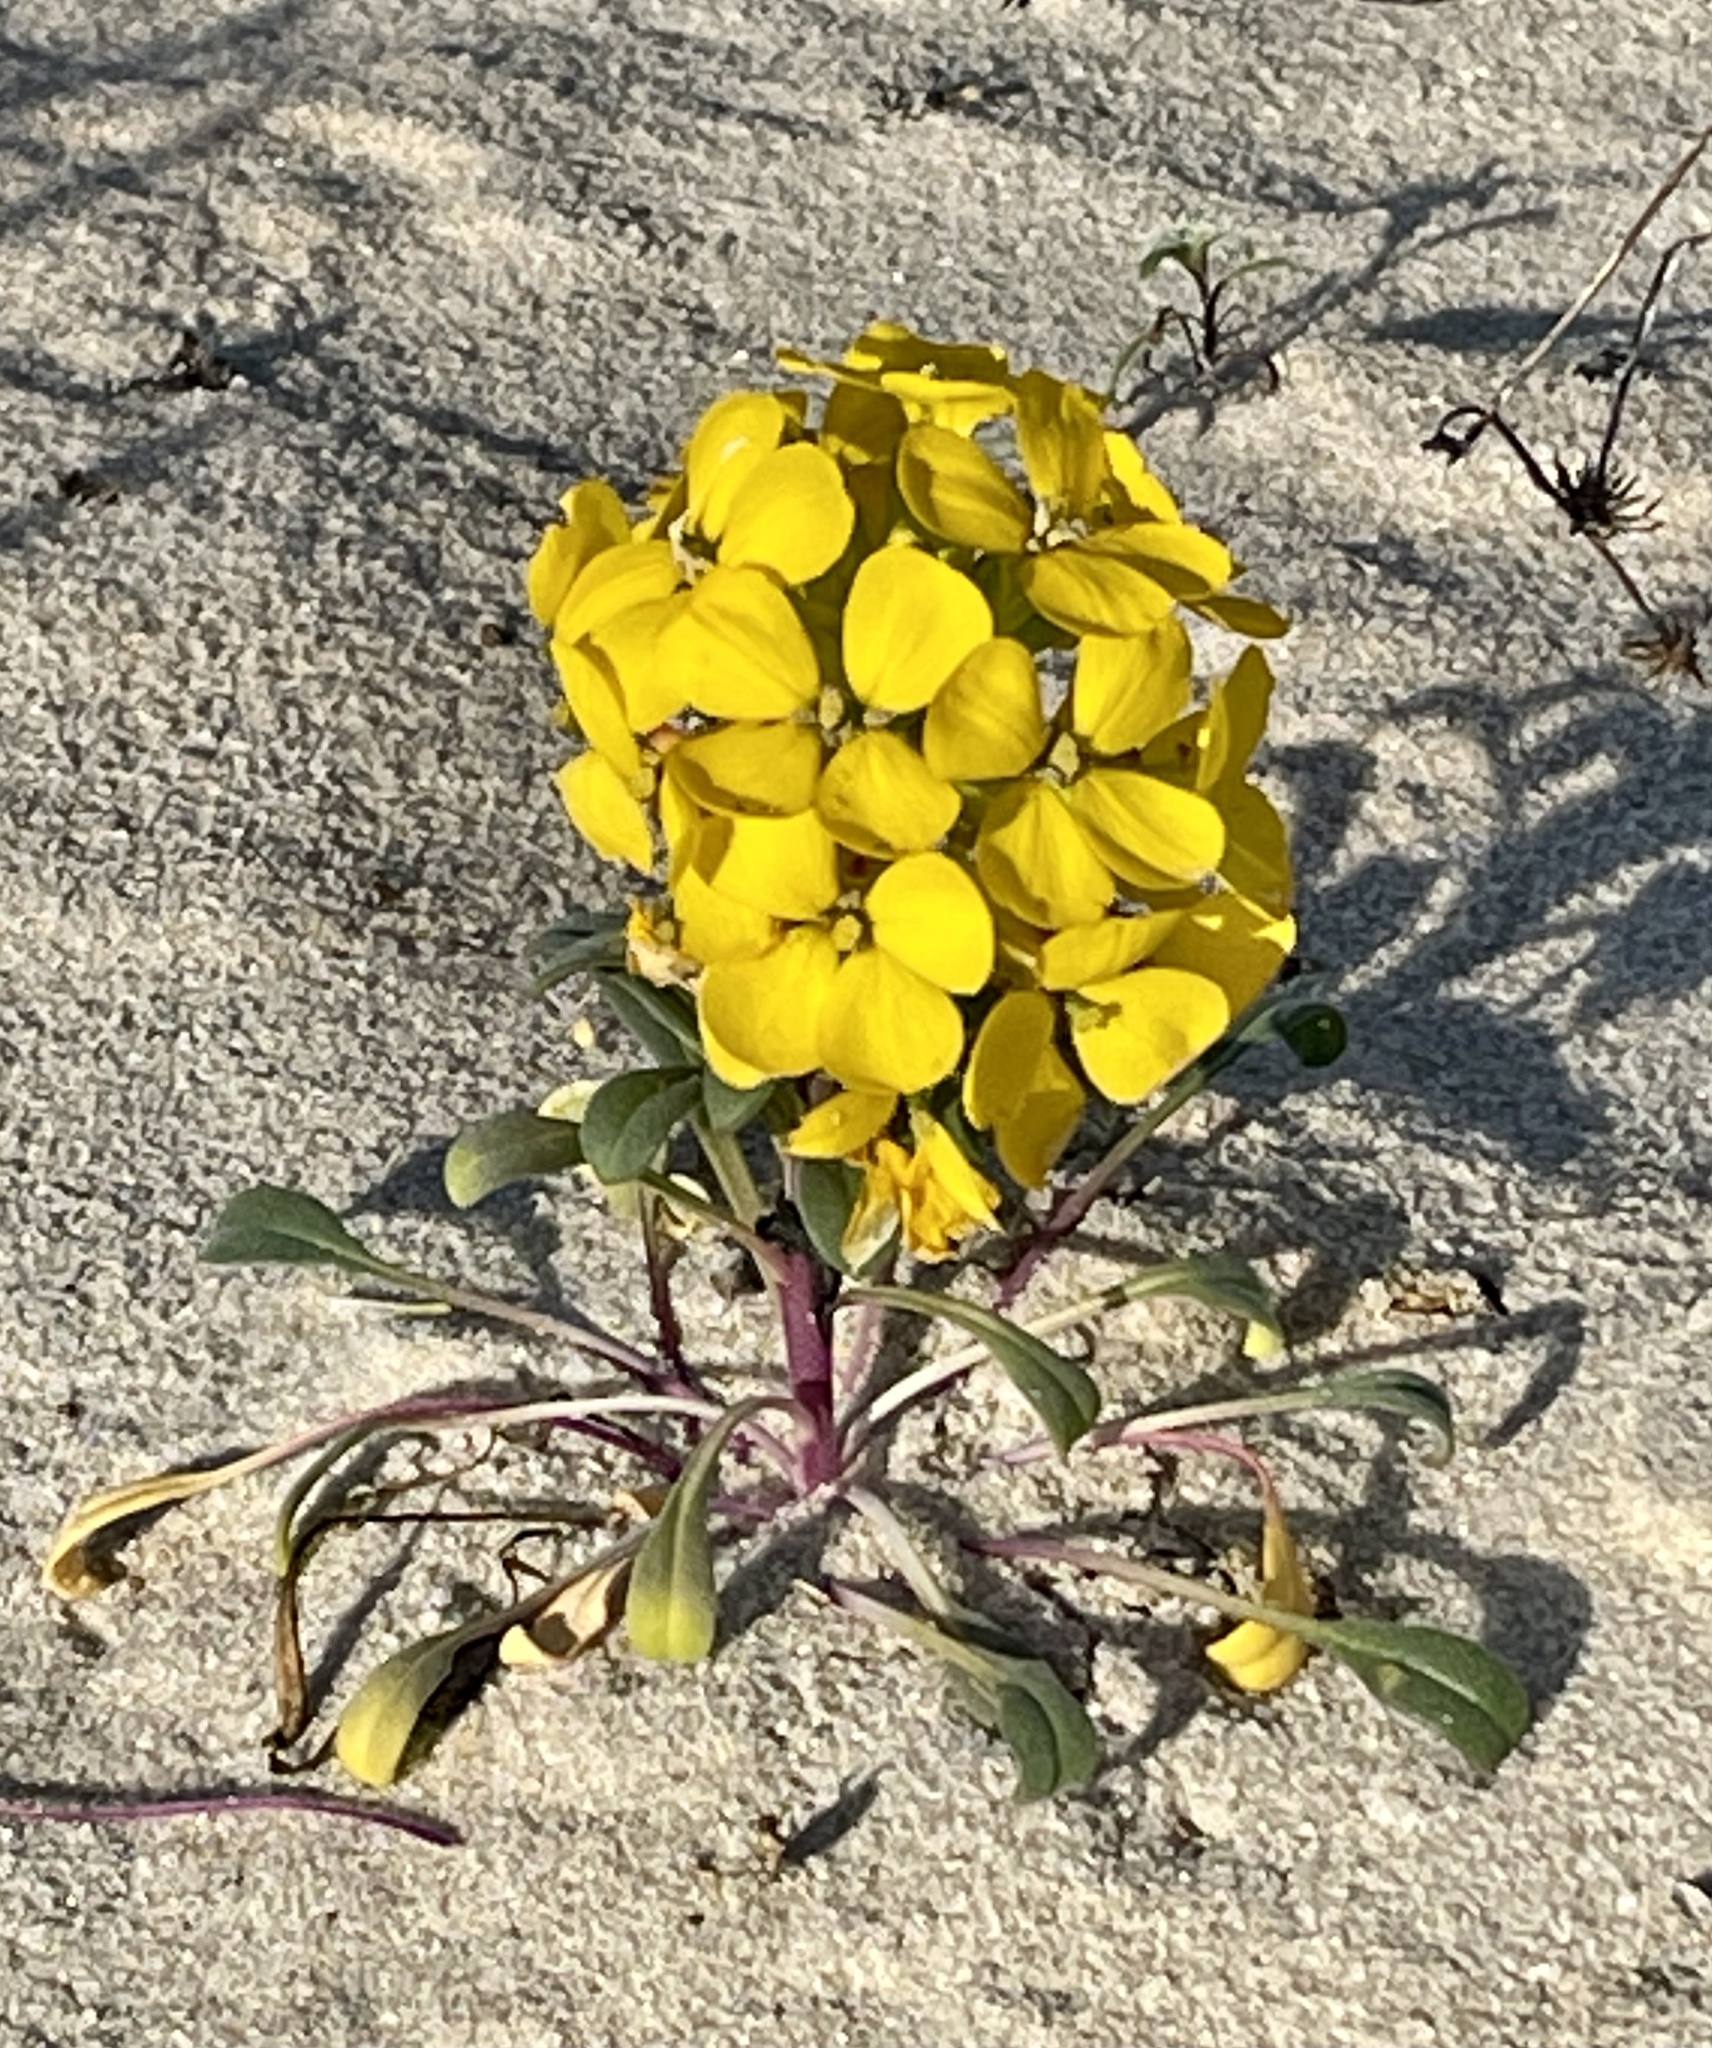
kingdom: Plantae
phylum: Tracheophyta
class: Magnoliopsida
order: Brassicales
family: Brassicaceae
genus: Erysimum
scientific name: Erysimum menziesii
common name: Menzies's wallflower
